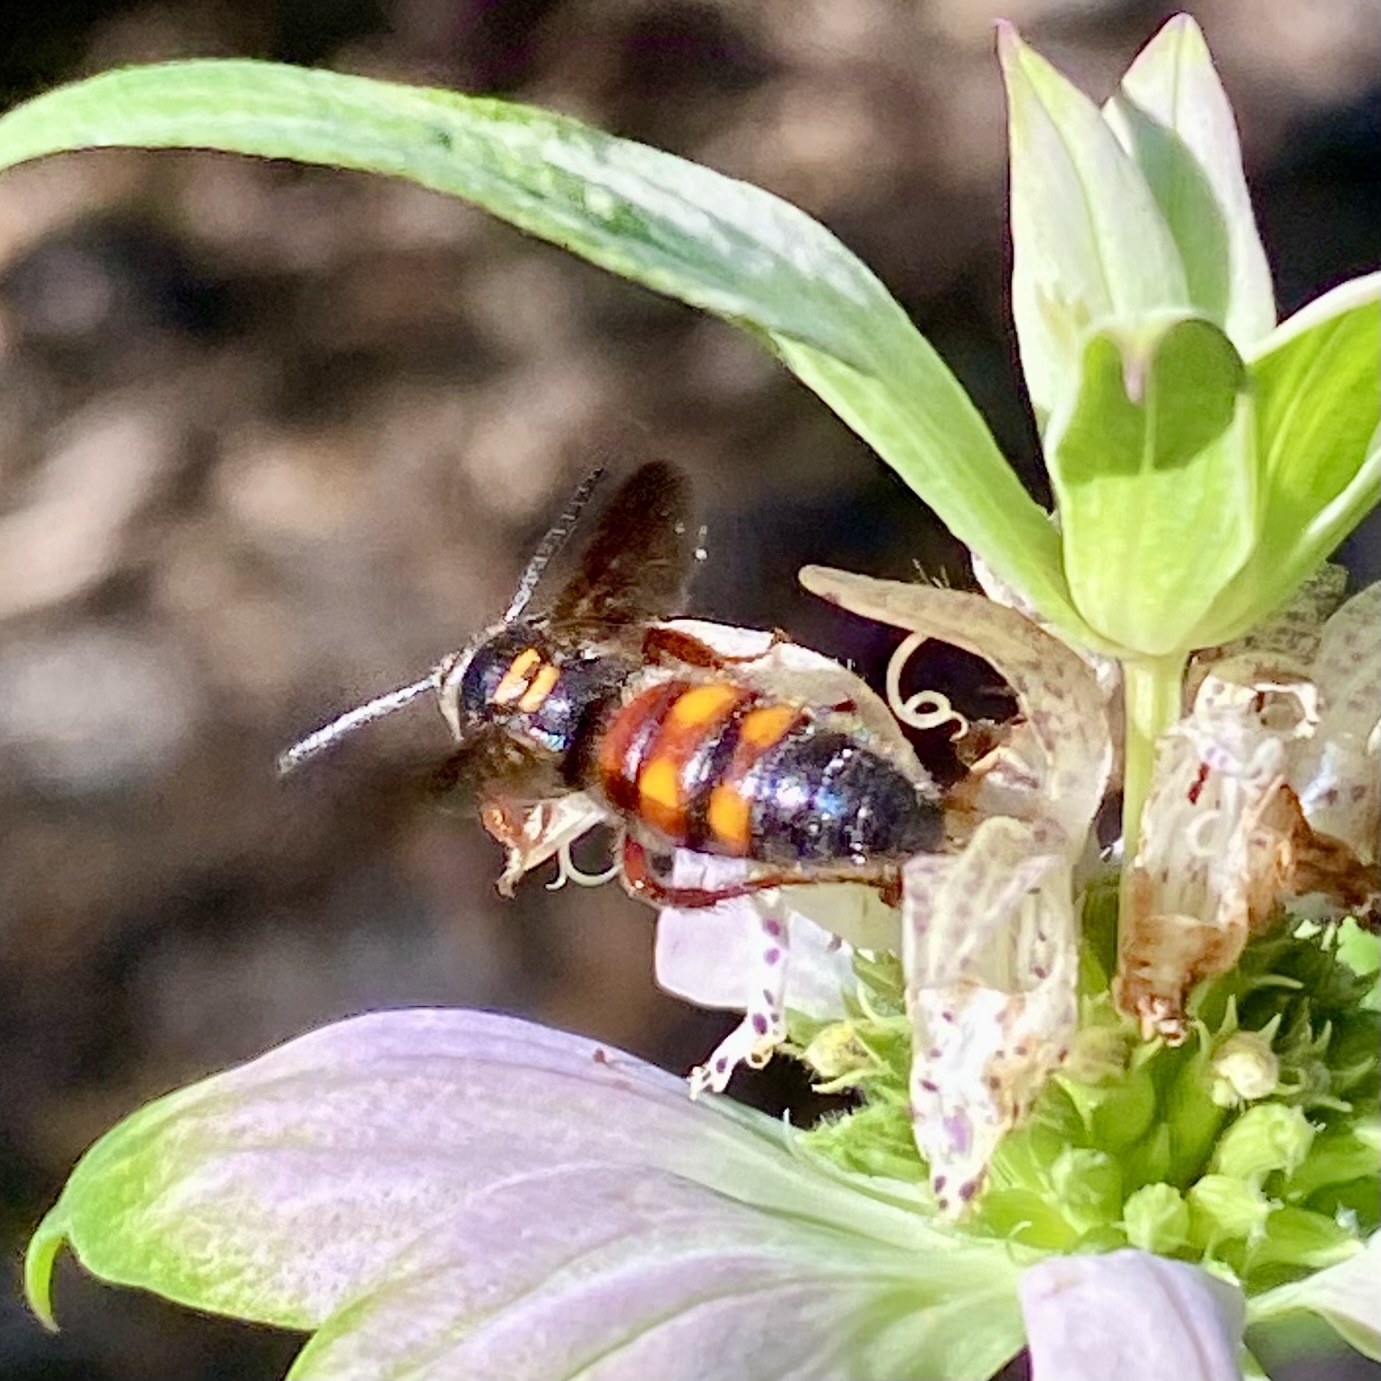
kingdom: Animalia
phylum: Arthropoda
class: Insecta
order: Hymenoptera
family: Scoliidae
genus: Scolia
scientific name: Scolia nobilitata
